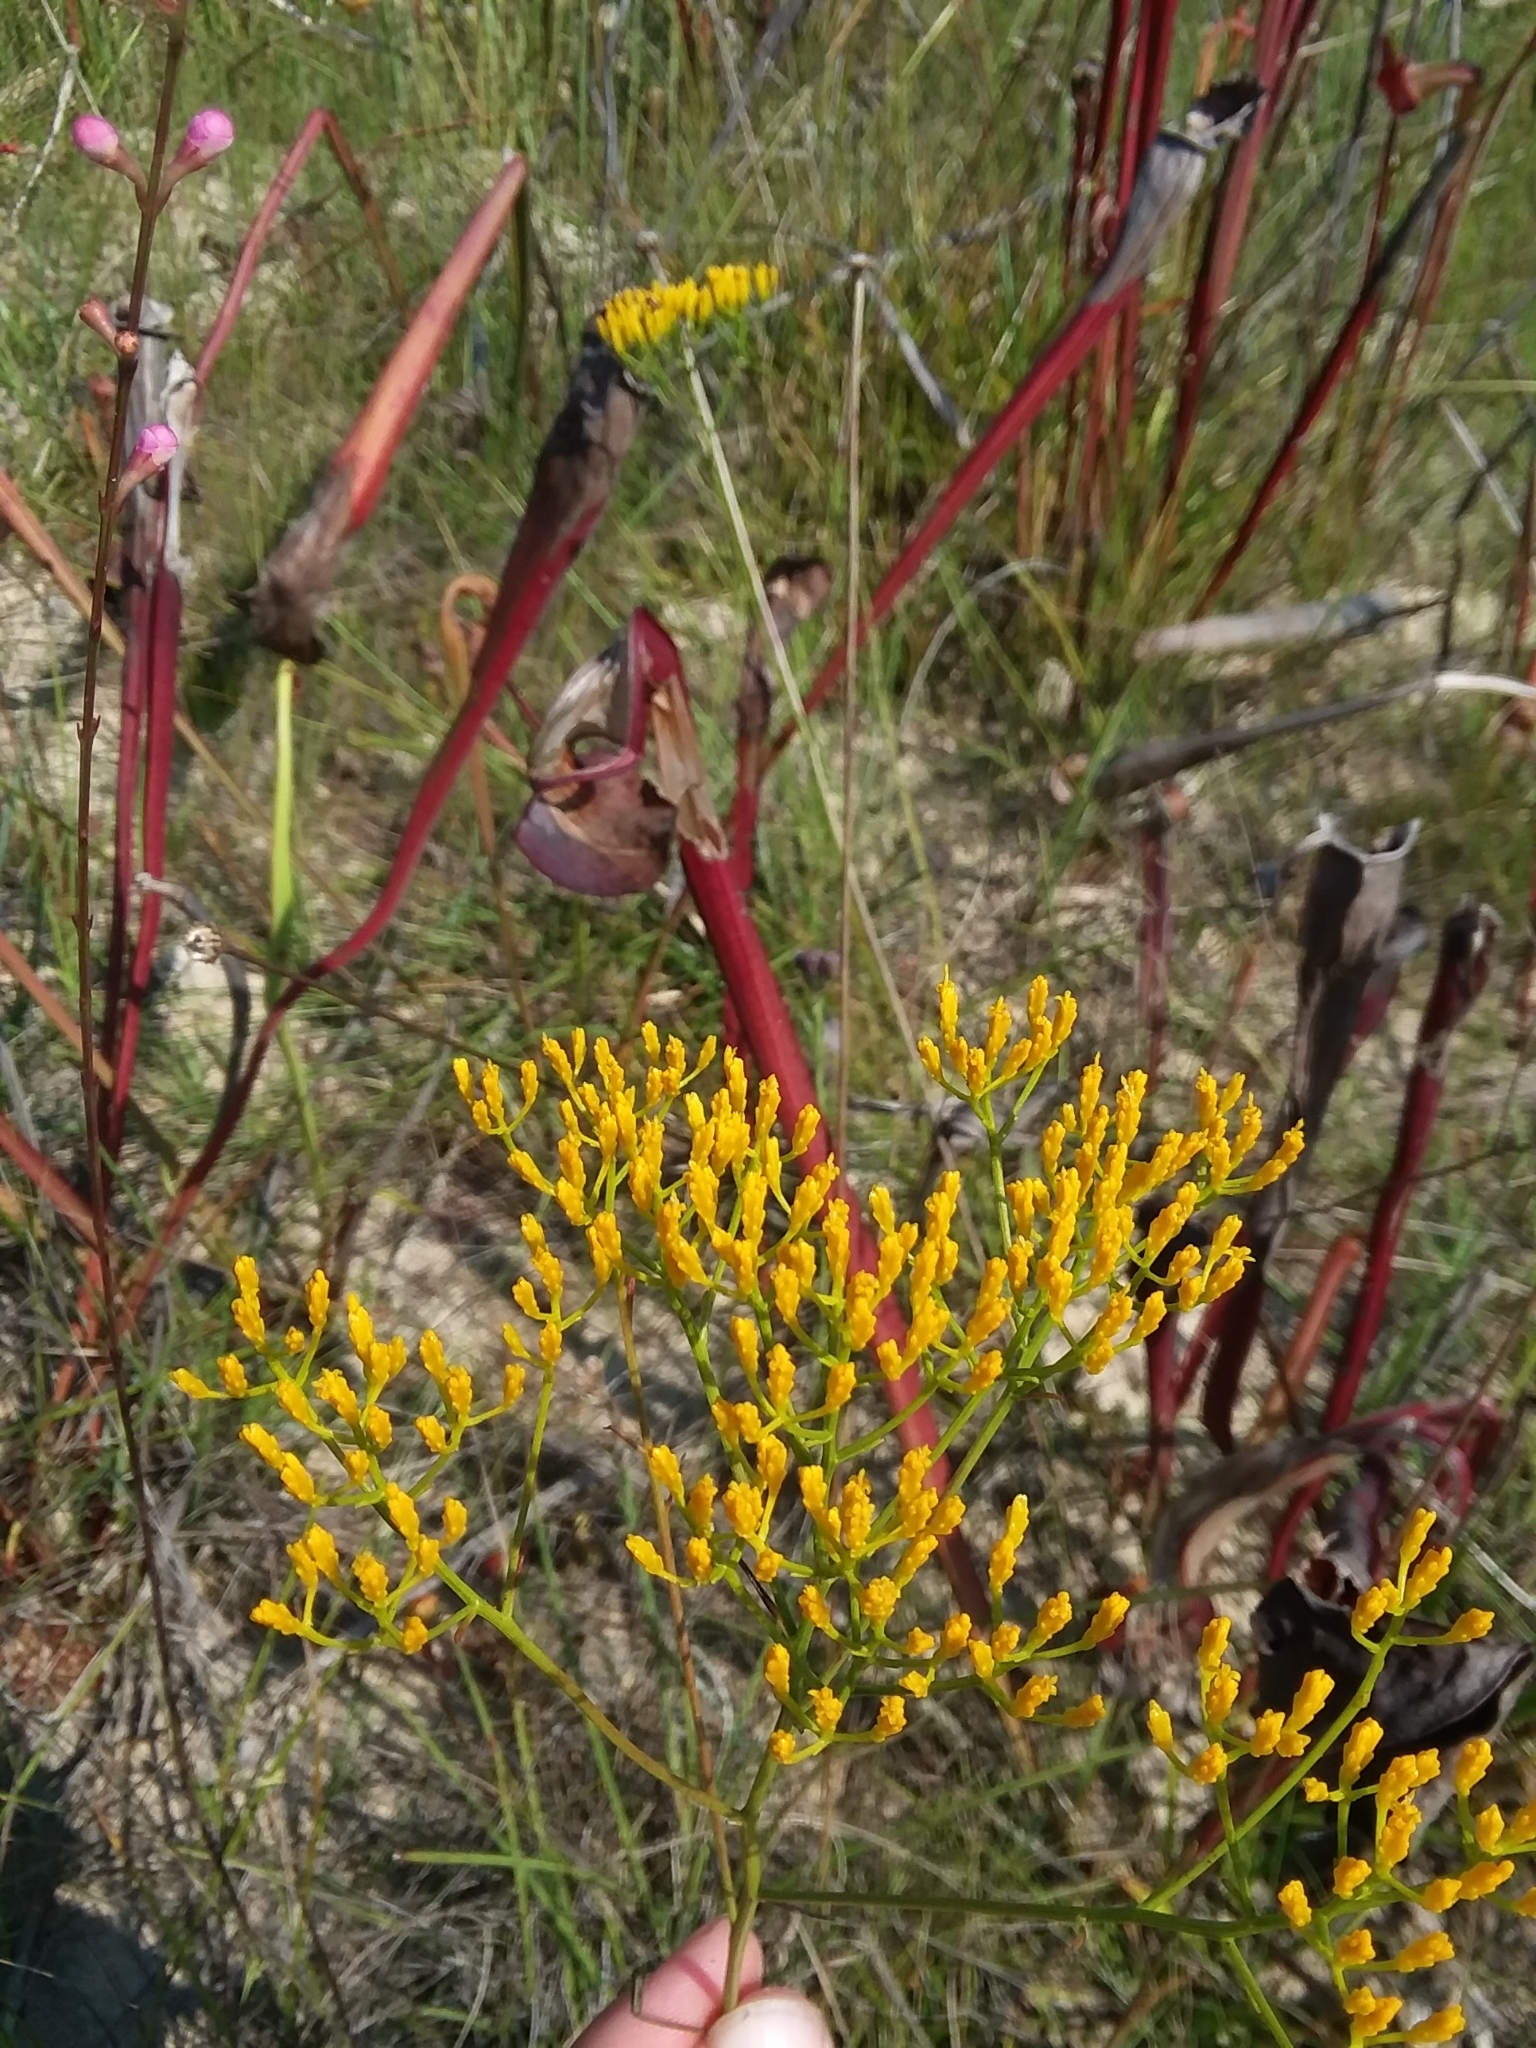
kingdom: Plantae
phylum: Tracheophyta
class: Magnoliopsida
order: Asterales
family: Asteraceae
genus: Bigelowia
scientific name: Bigelowia nudata
